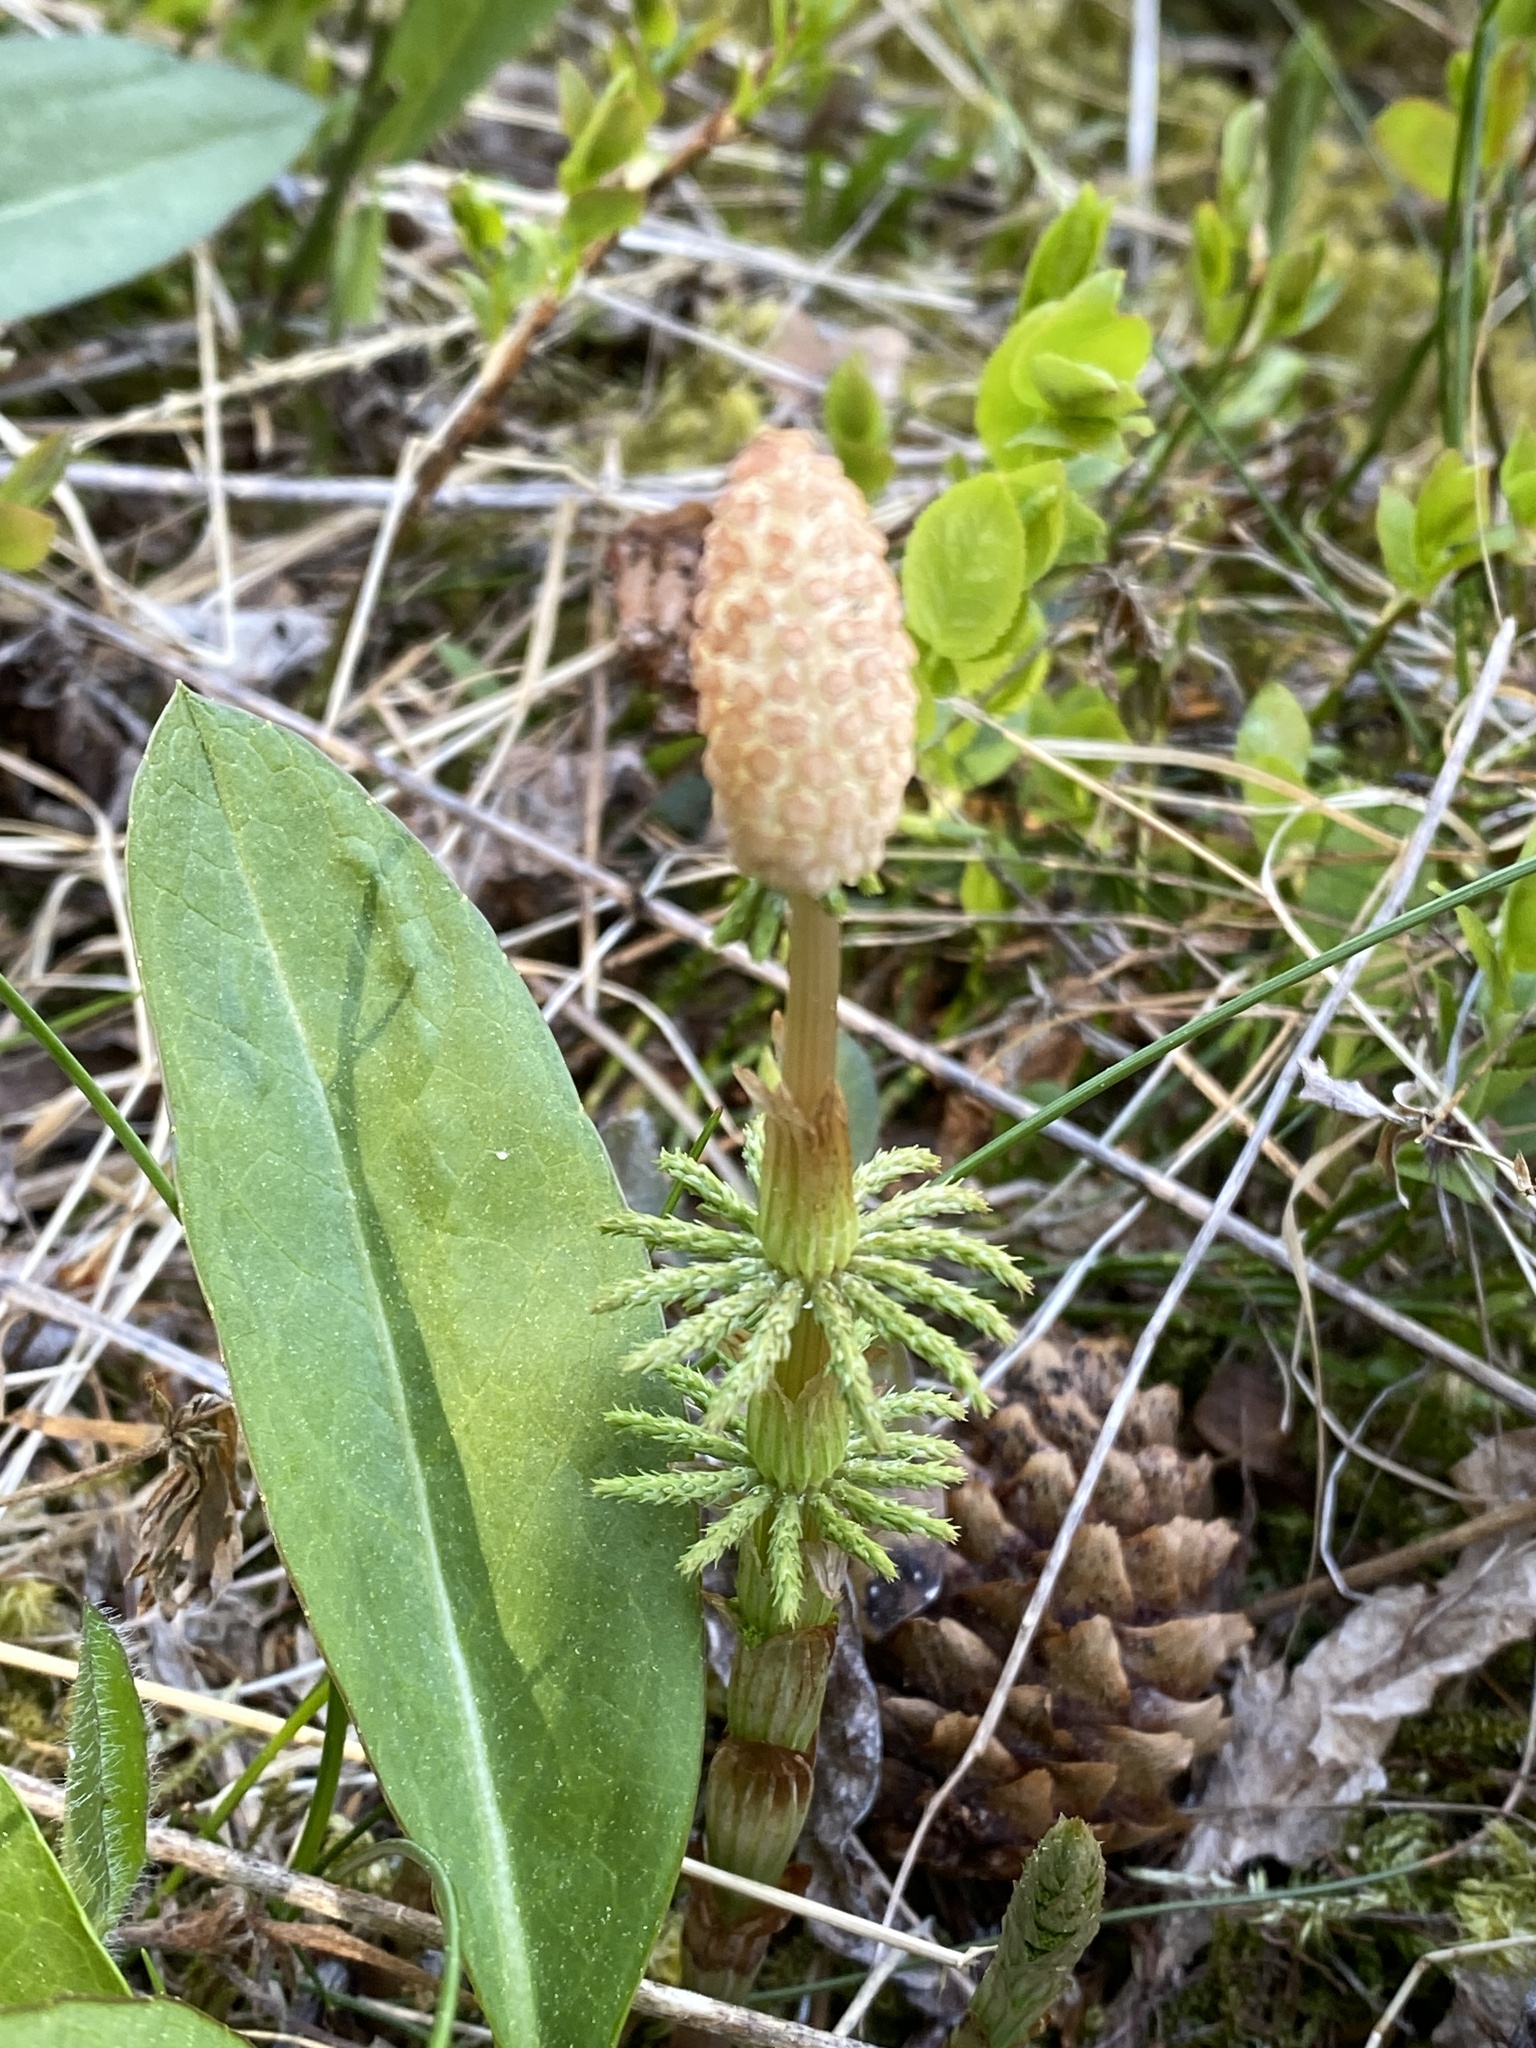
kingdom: Plantae
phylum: Tracheophyta
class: Polypodiopsida
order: Equisetales
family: Equisetaceae
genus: Equisetum
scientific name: Equisetum sylvaticum
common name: Wood horsetail
